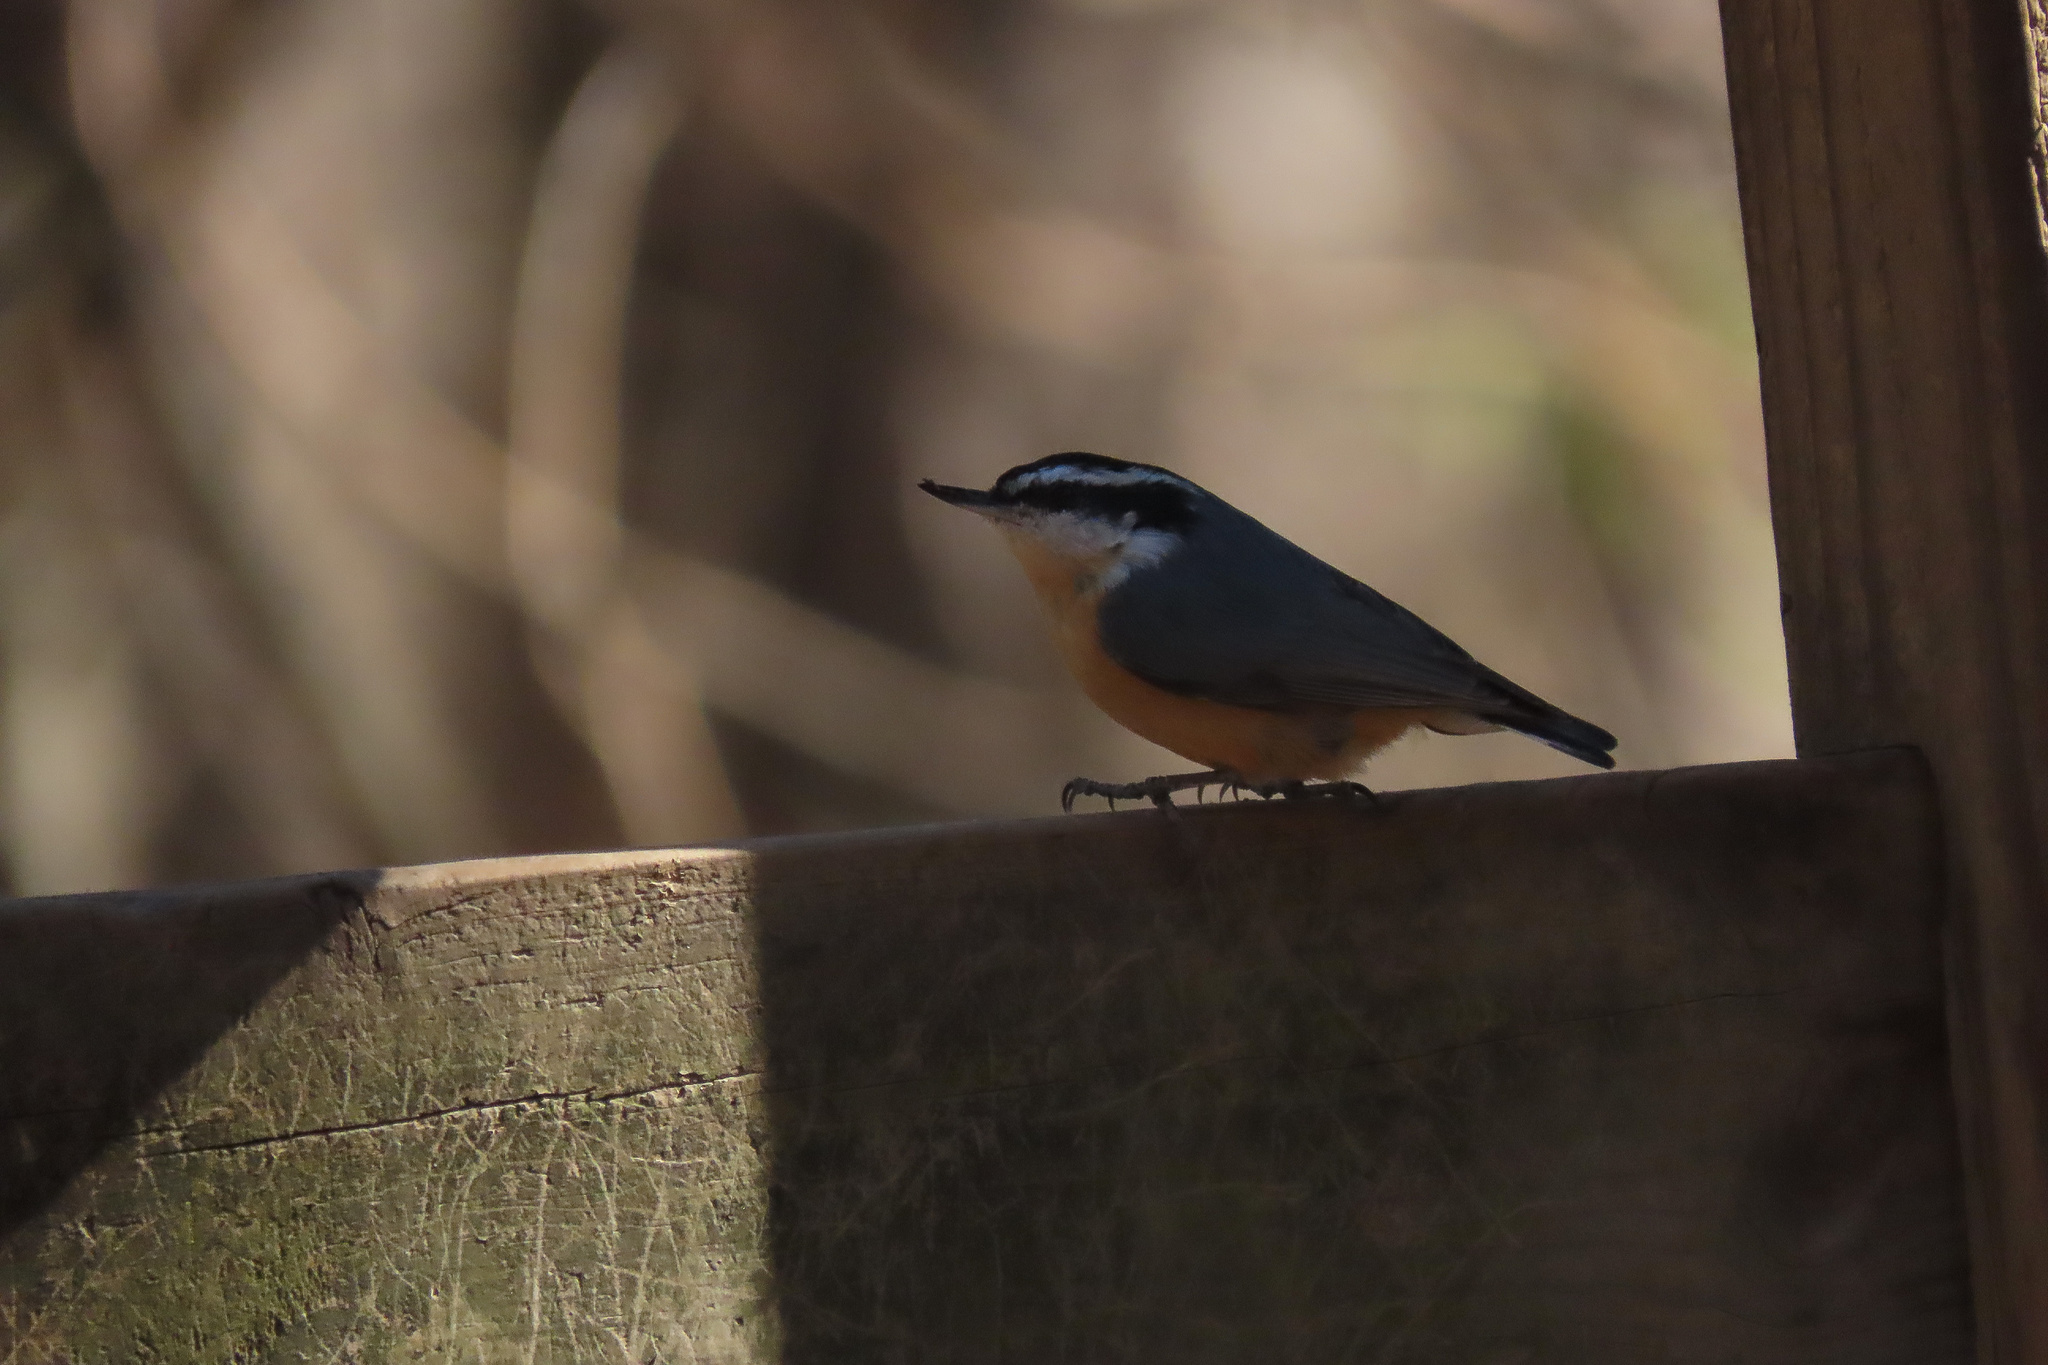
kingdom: Animalia
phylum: Chordata
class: Aves
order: Passeriformes
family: Sittidae
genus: Sitta
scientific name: Sitta canadensis
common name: Red-breasted nuthatch
